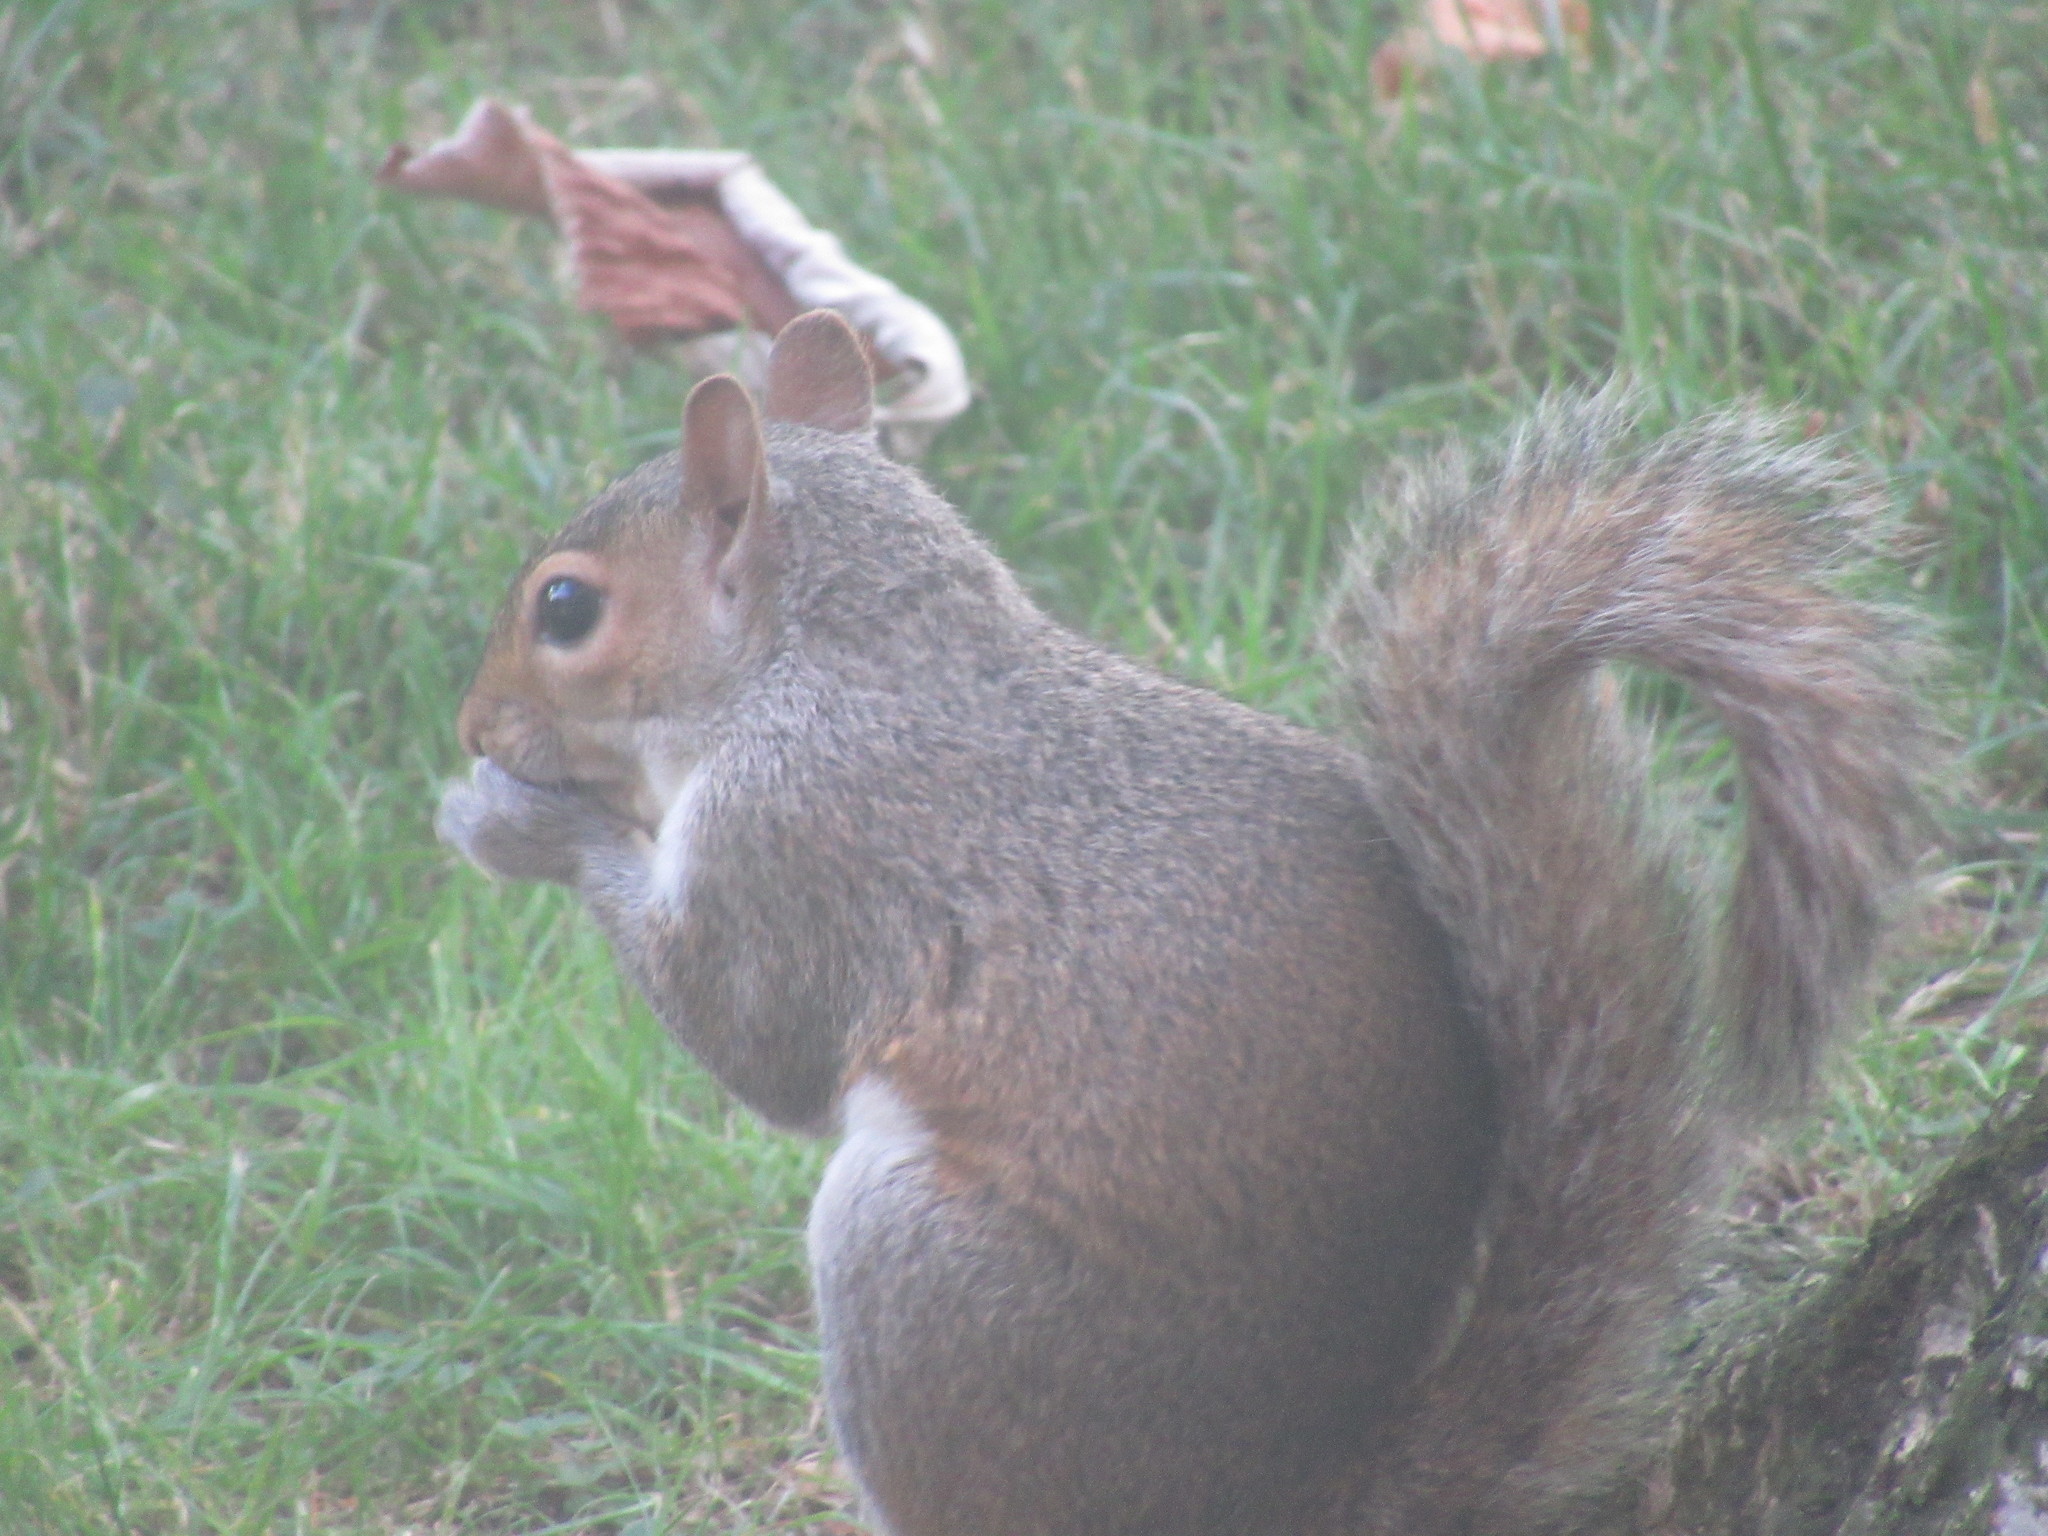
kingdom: Animalia
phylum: Chordata
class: Mammalia
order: Rodentia
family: Sciuridae
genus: Sciurus
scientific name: Sciurus carolinensis
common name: Eastern gray squirrel
